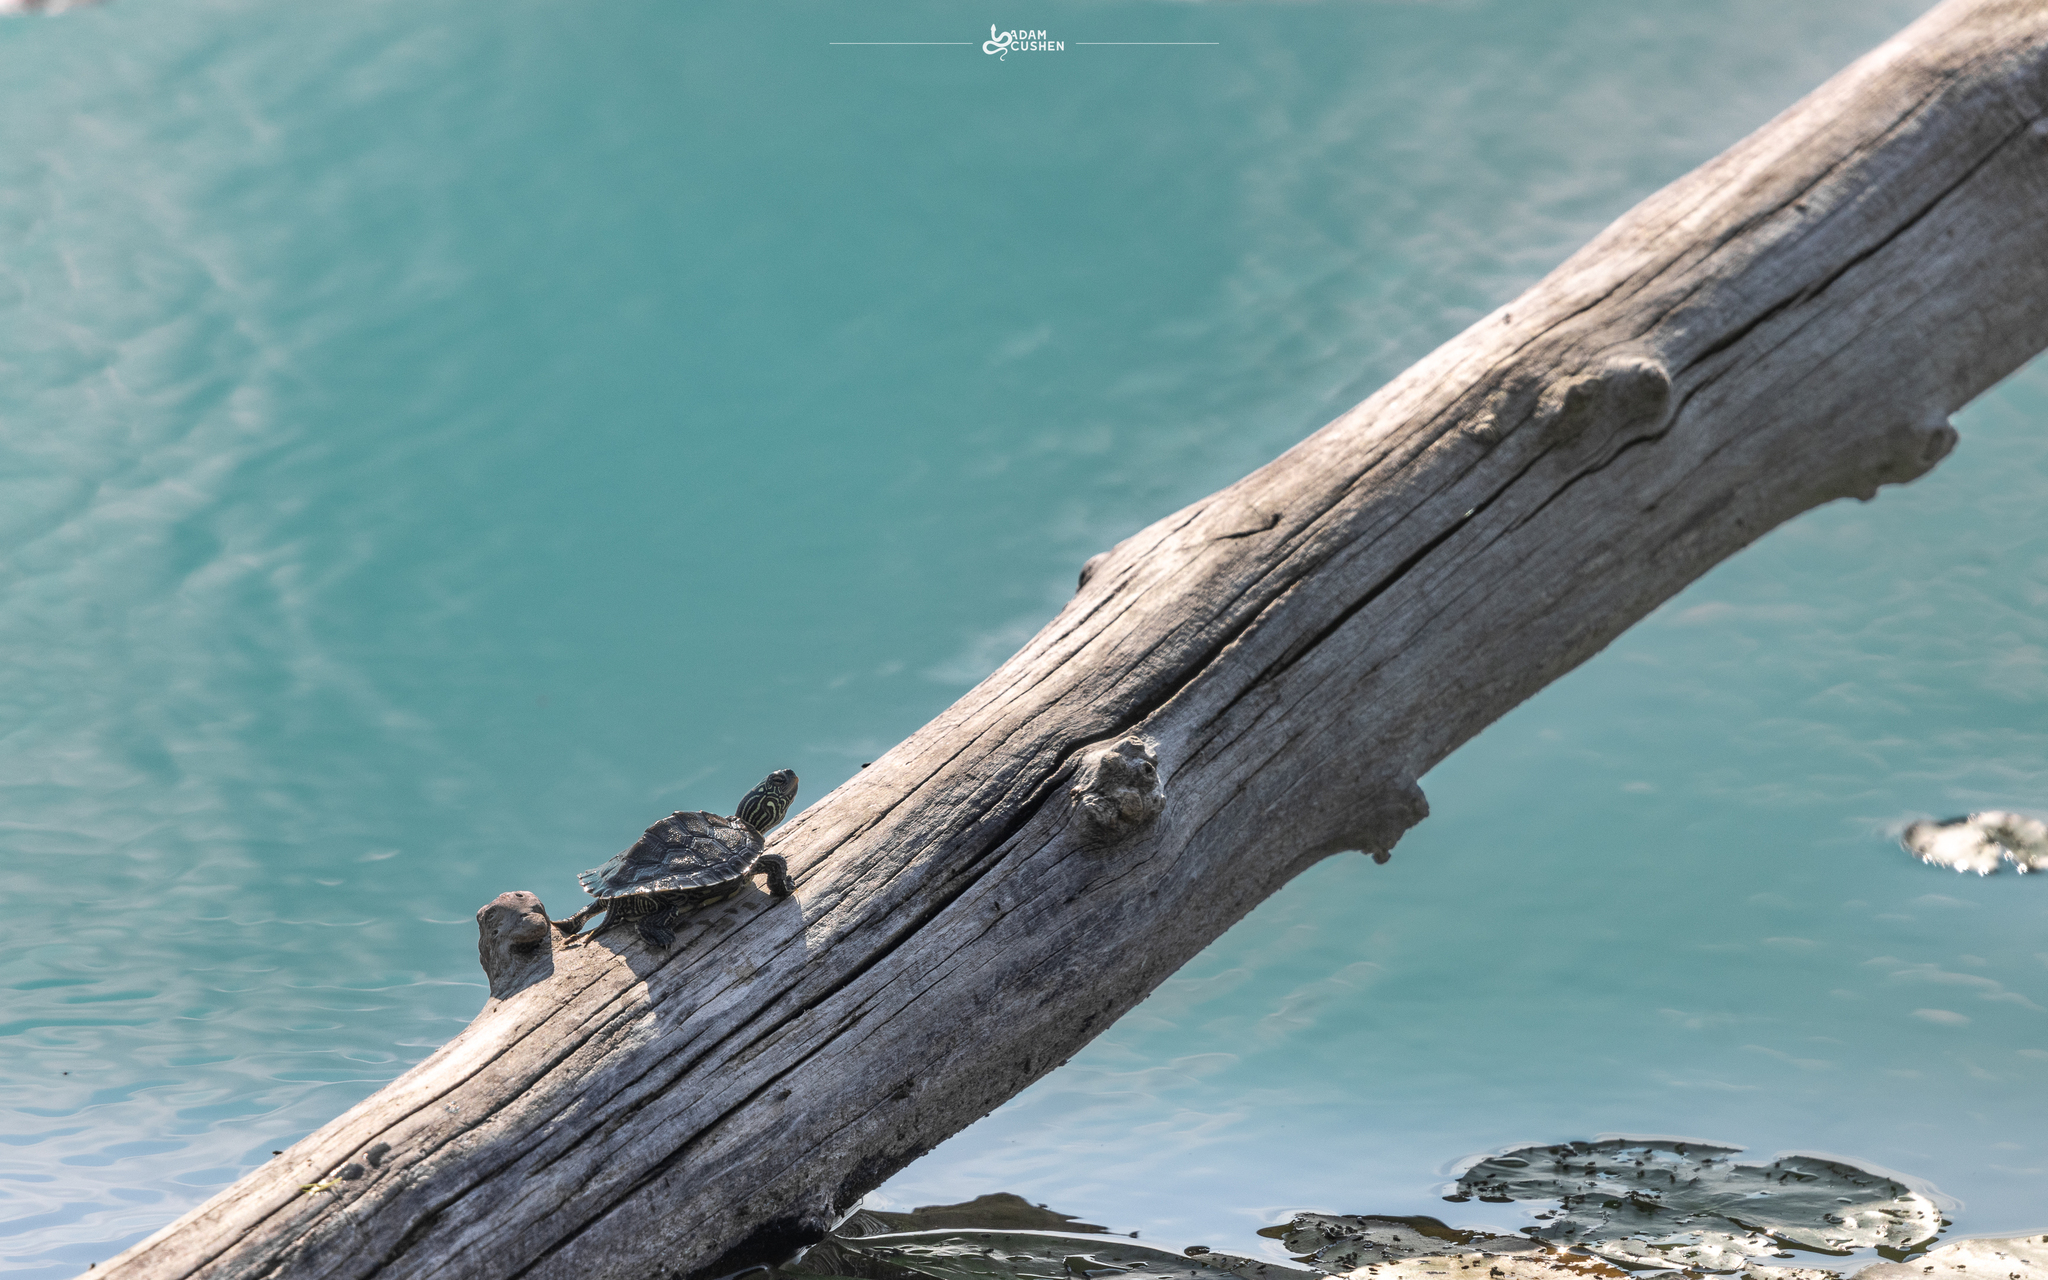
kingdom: Animalia
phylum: Chordata
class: Testudines
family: Emydidae
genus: Graptemys
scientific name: Graptemys geographica
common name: Common map turtle
